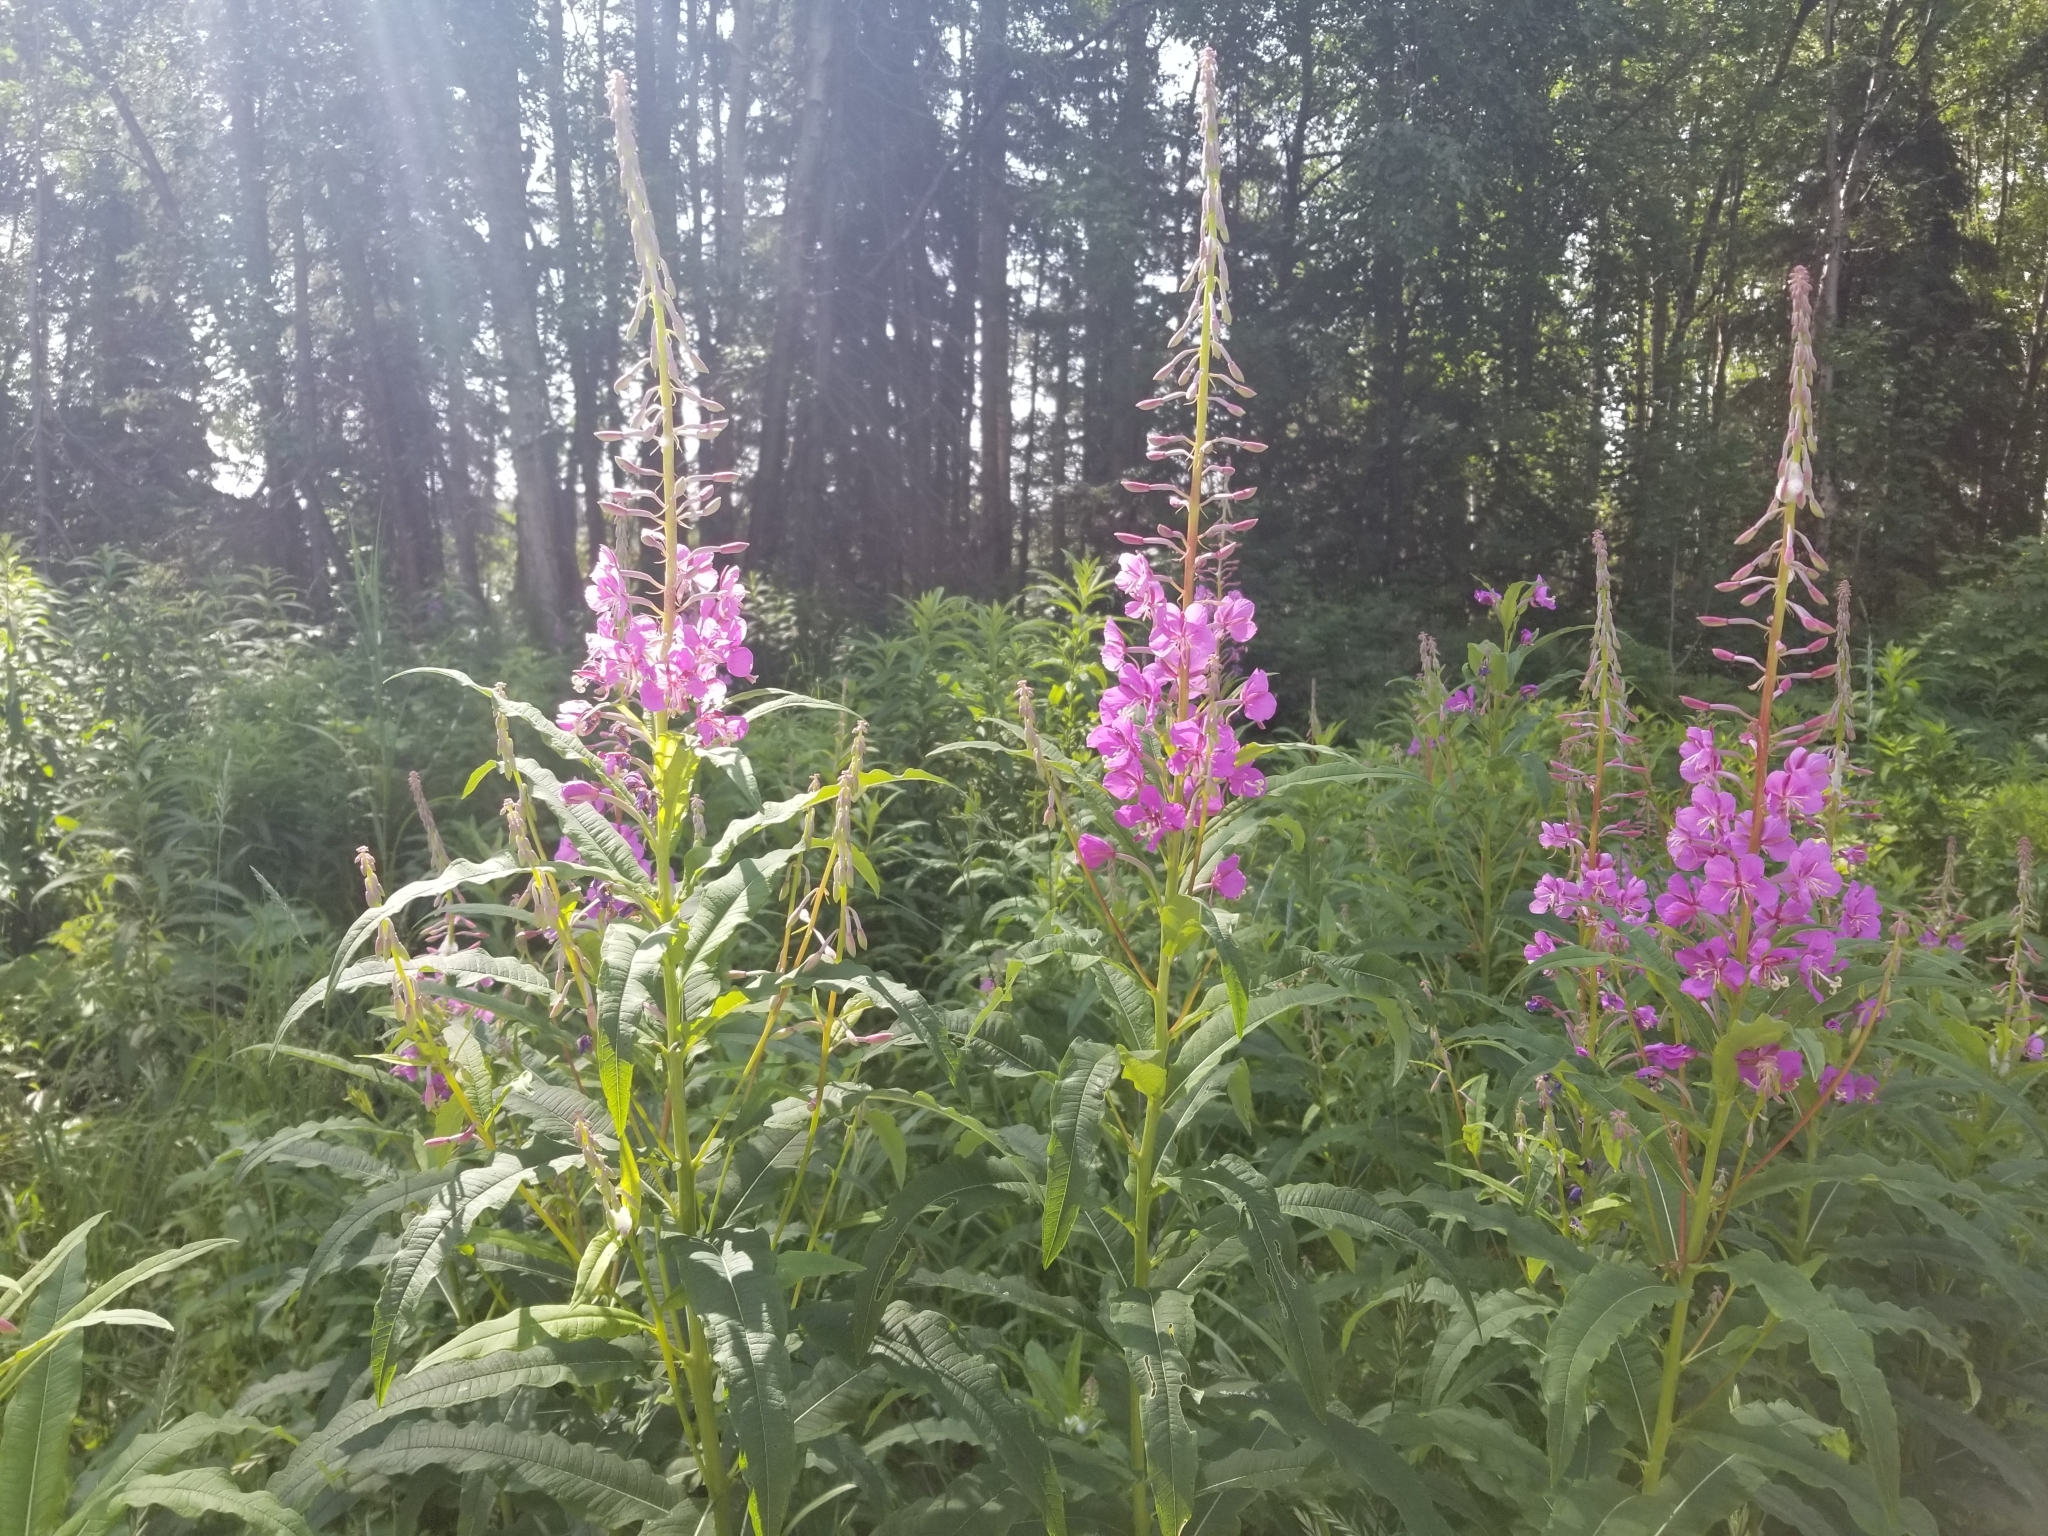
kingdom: Plantae
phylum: Tracheophyta
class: Magnoliopsida
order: Myrtales
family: Onagraceae
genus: Chamaenerion
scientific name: Chamaenerion angustifolium
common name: Fireweed
